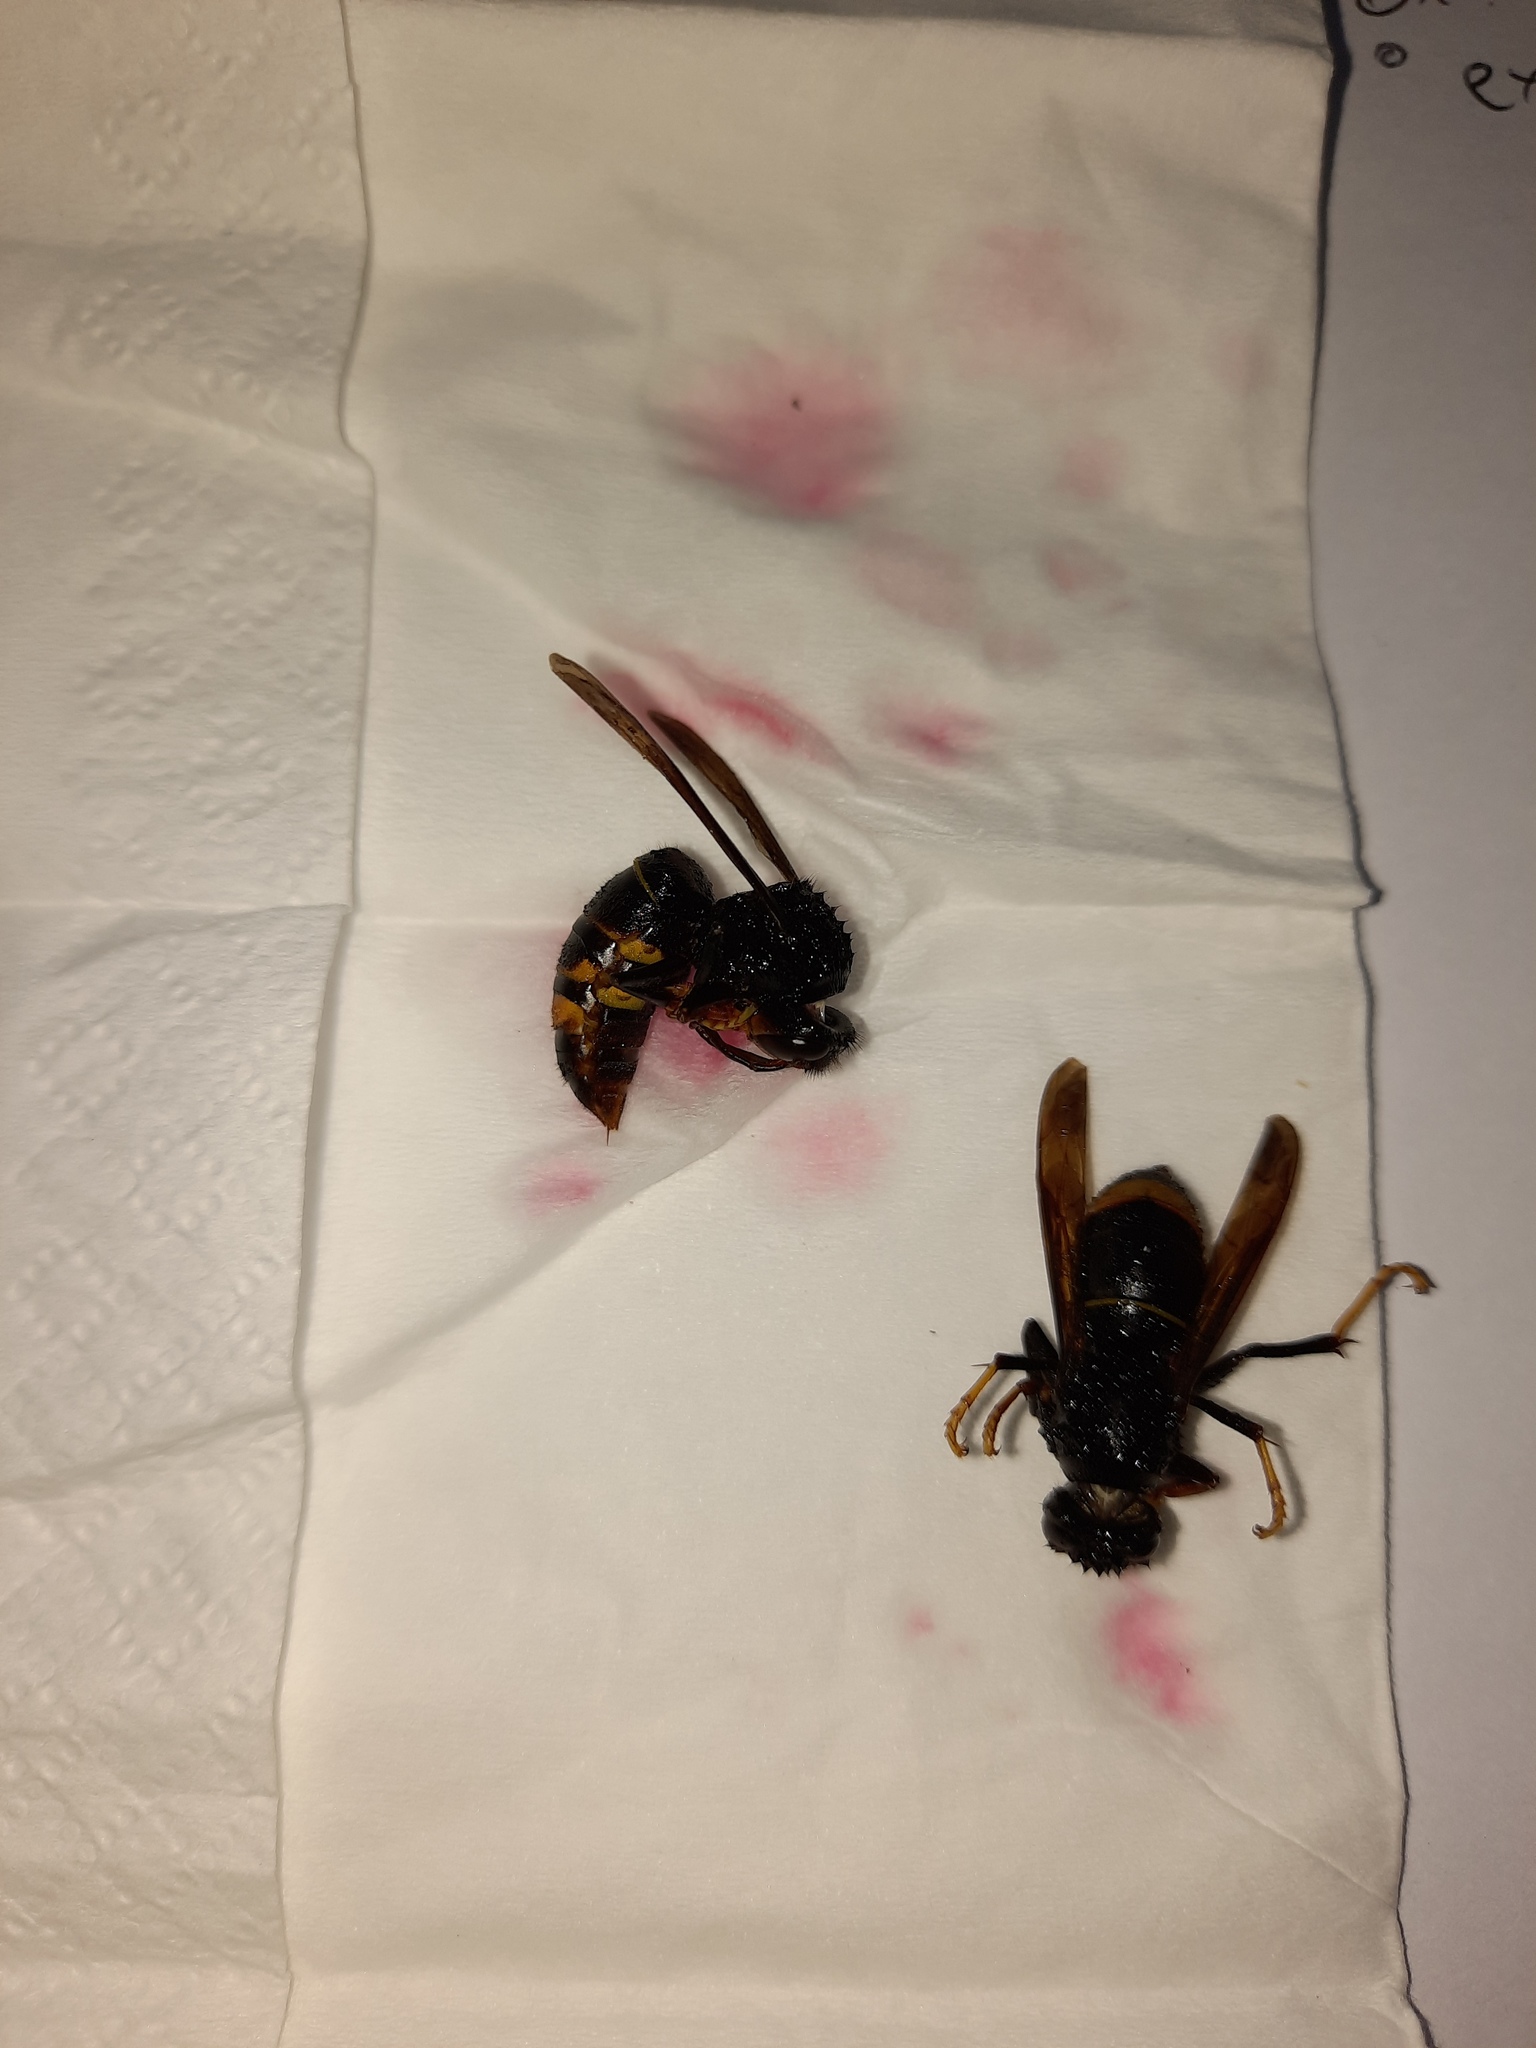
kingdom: Animalia
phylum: Arthropoda
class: Insecta
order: Hymenoptera
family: Vespidae
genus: Vespa
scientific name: Vespa velutina
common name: Asian hornet
